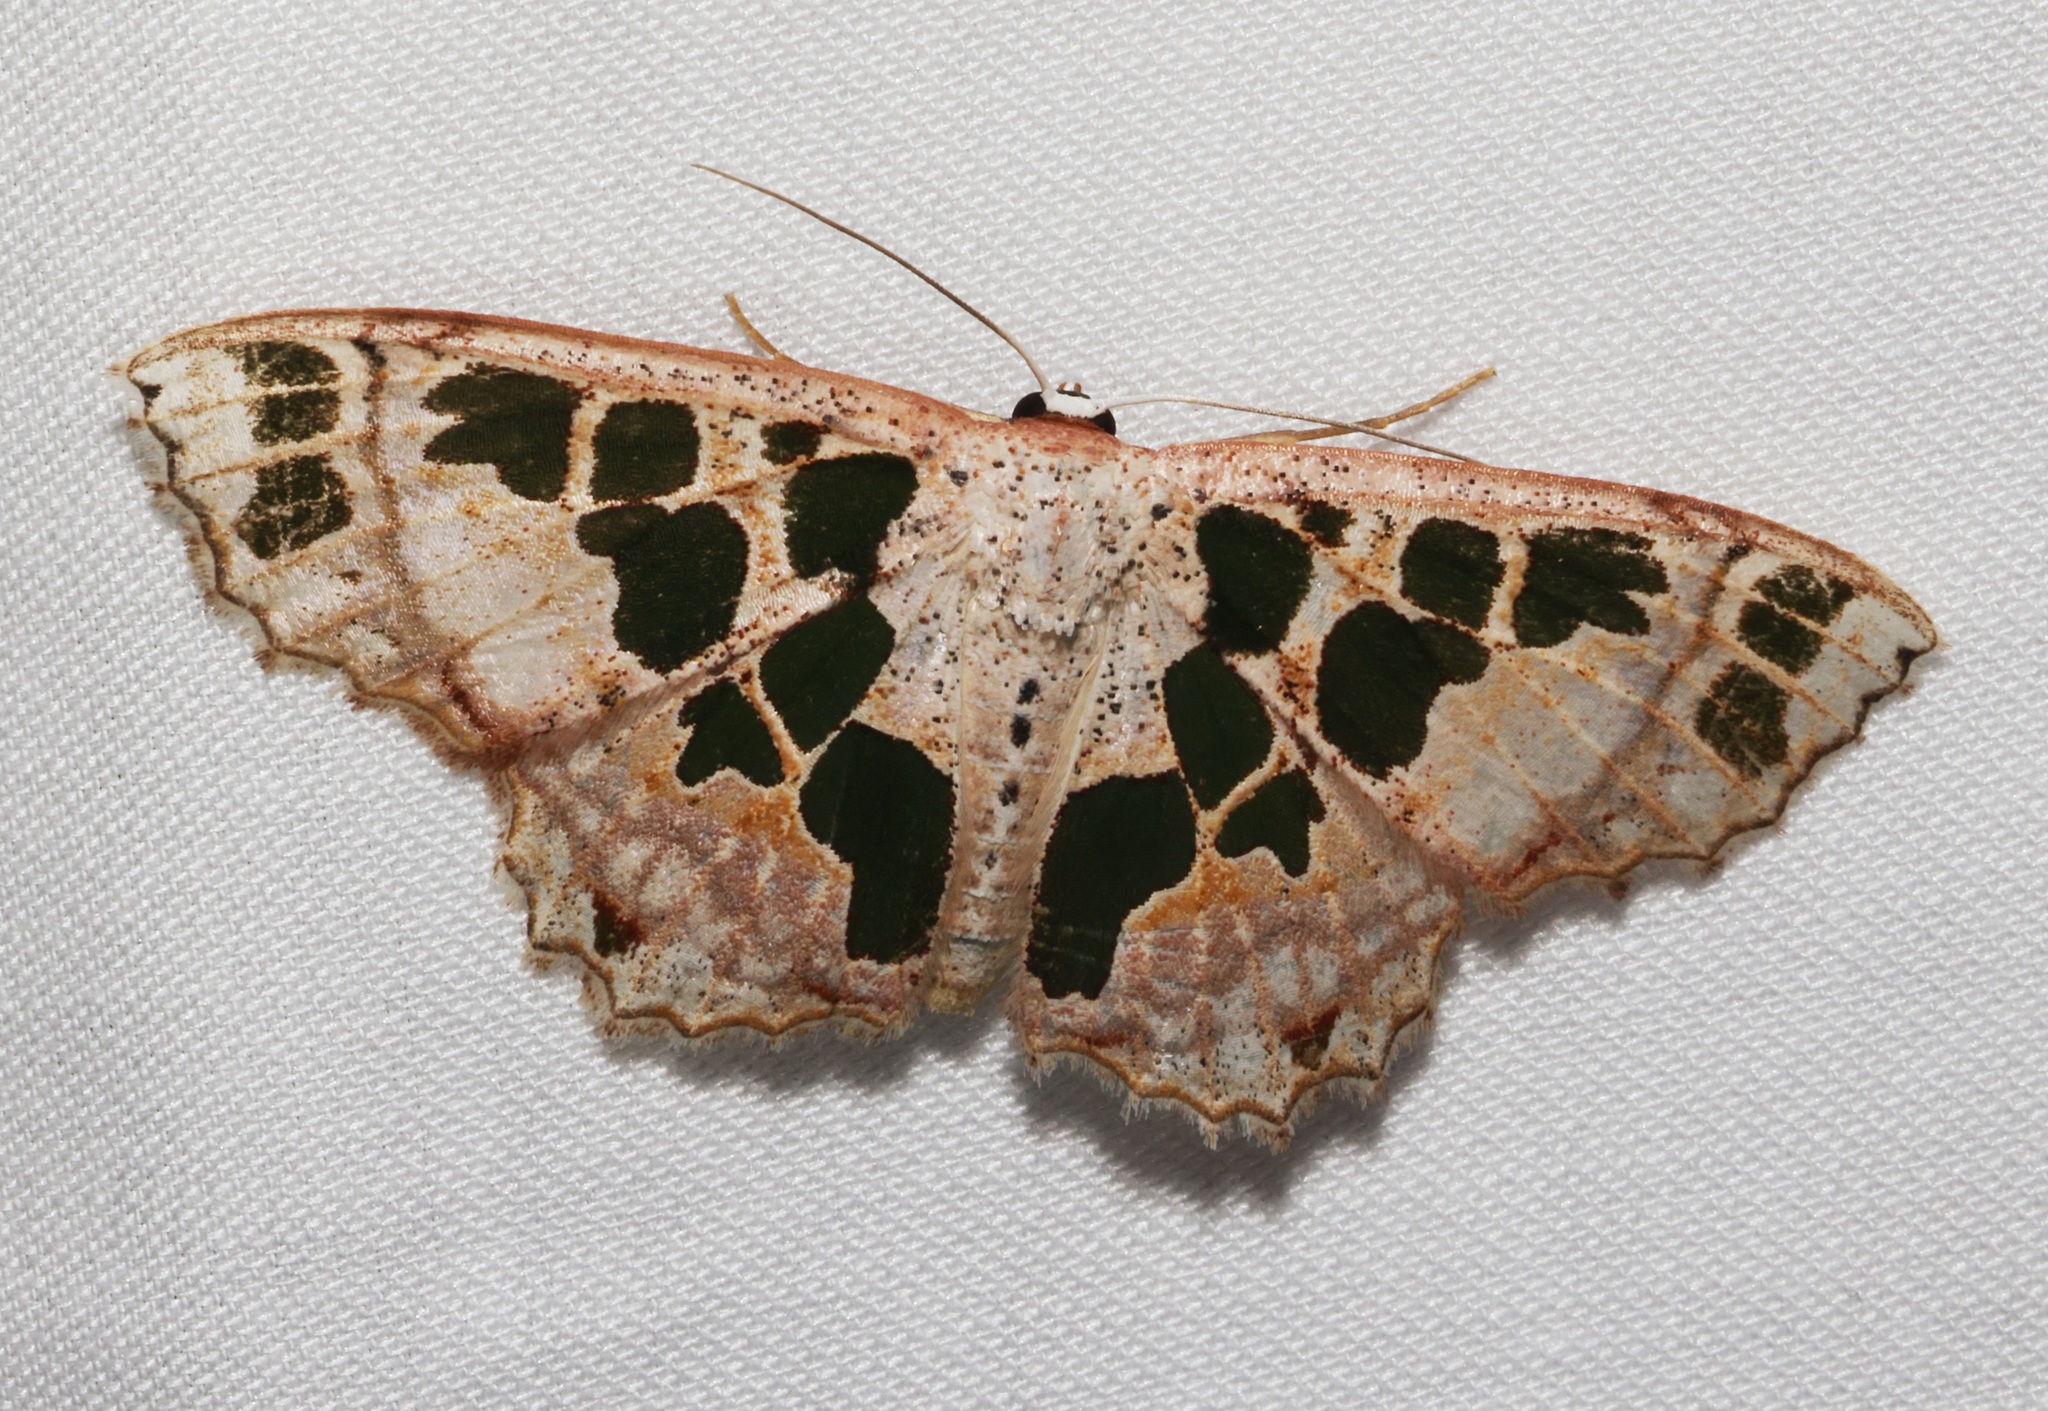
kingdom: Animalia
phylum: Arthropoda
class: Insecta
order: Lepidoptera
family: Geometridae
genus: Scopula
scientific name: Scopula divisaria
